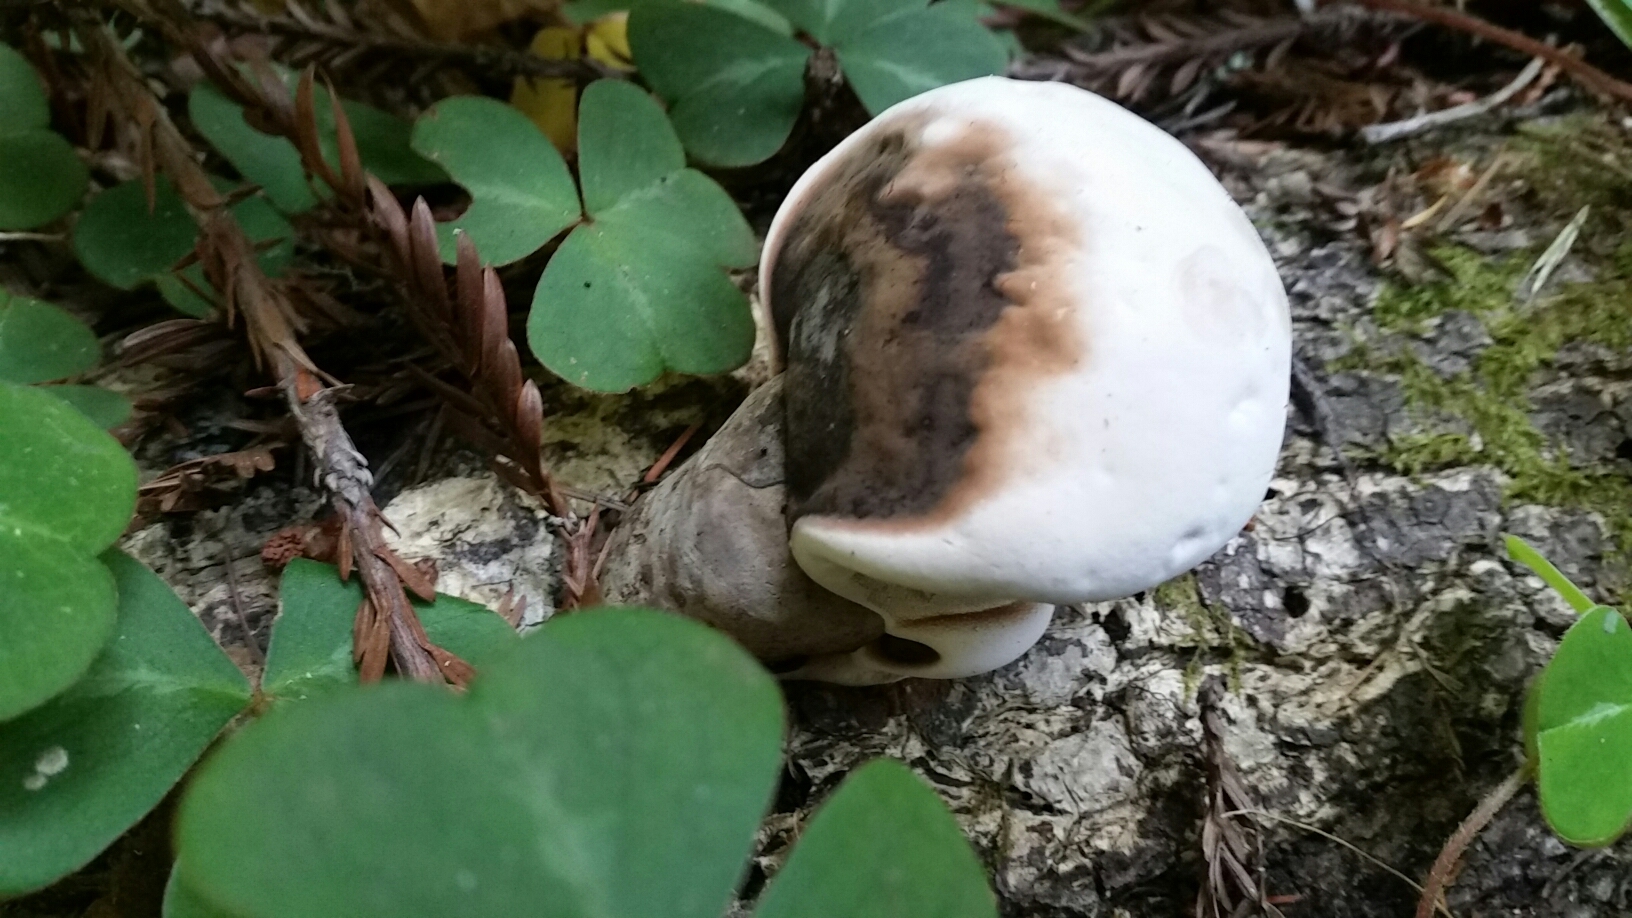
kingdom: Fungi
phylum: Basidiomycota
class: Agaricomycetes
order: Polyporales
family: Fomitopsidaceae
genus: Fomitopsis
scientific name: Fomitopsis ochracea
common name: American brown fomitopsis
